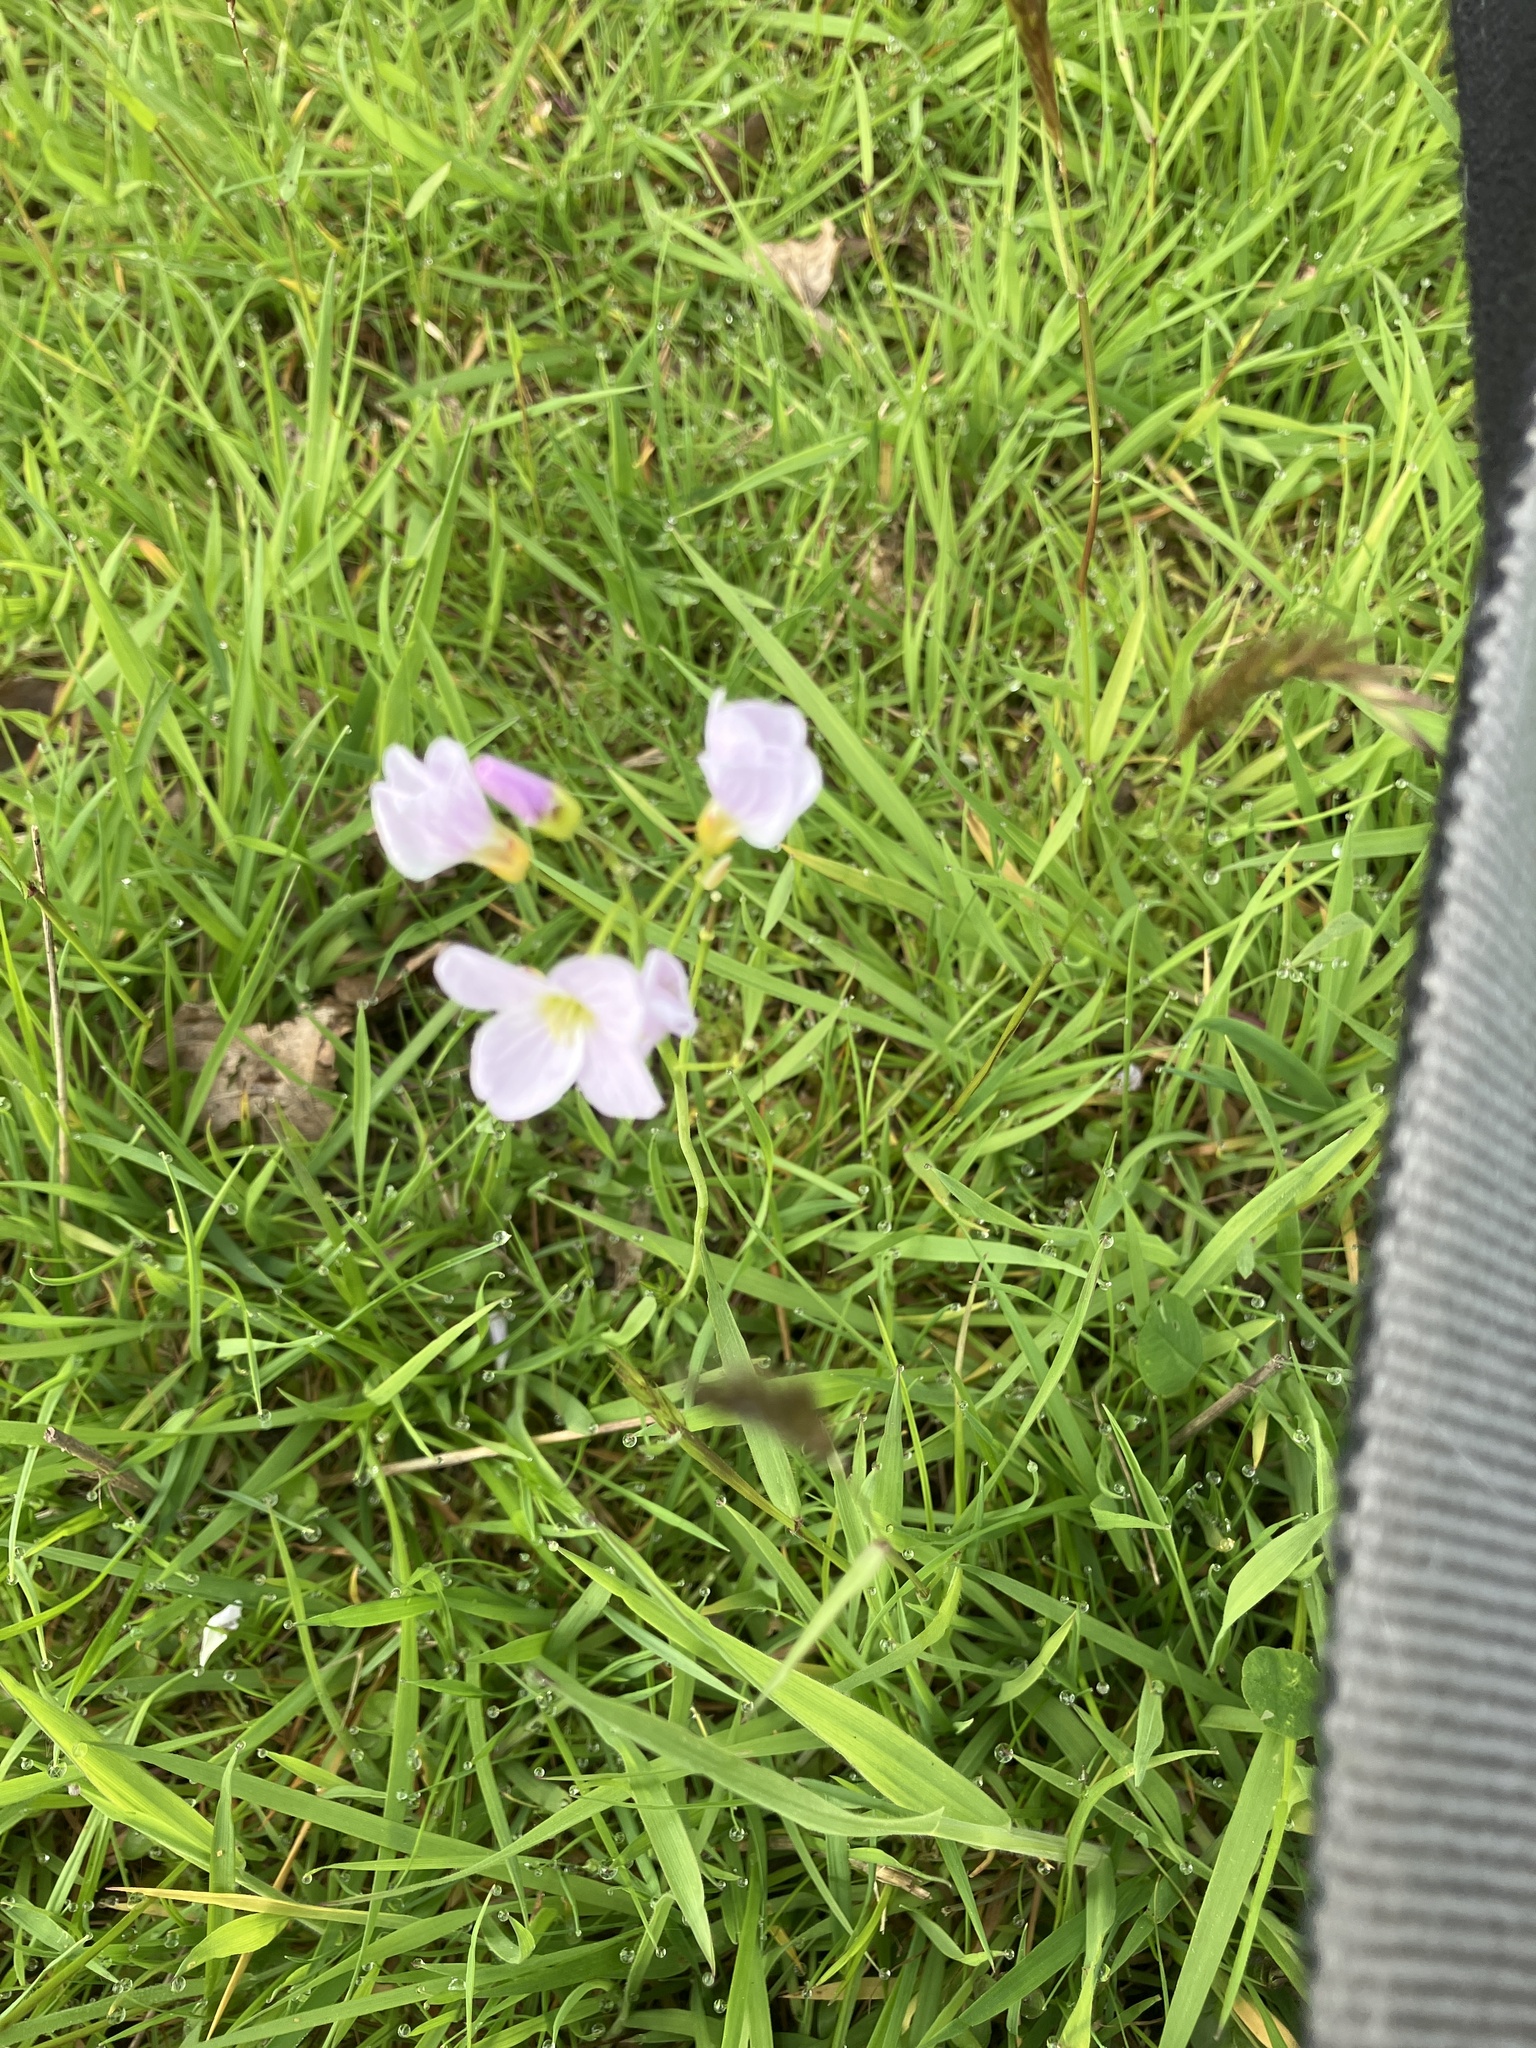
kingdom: Plantae
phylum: Tracheophyta
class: Magnoliopsida
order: Brassicales
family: Brassicaceae
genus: Cardamine
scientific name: Cardamine pratensis
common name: Cuckoo flower
